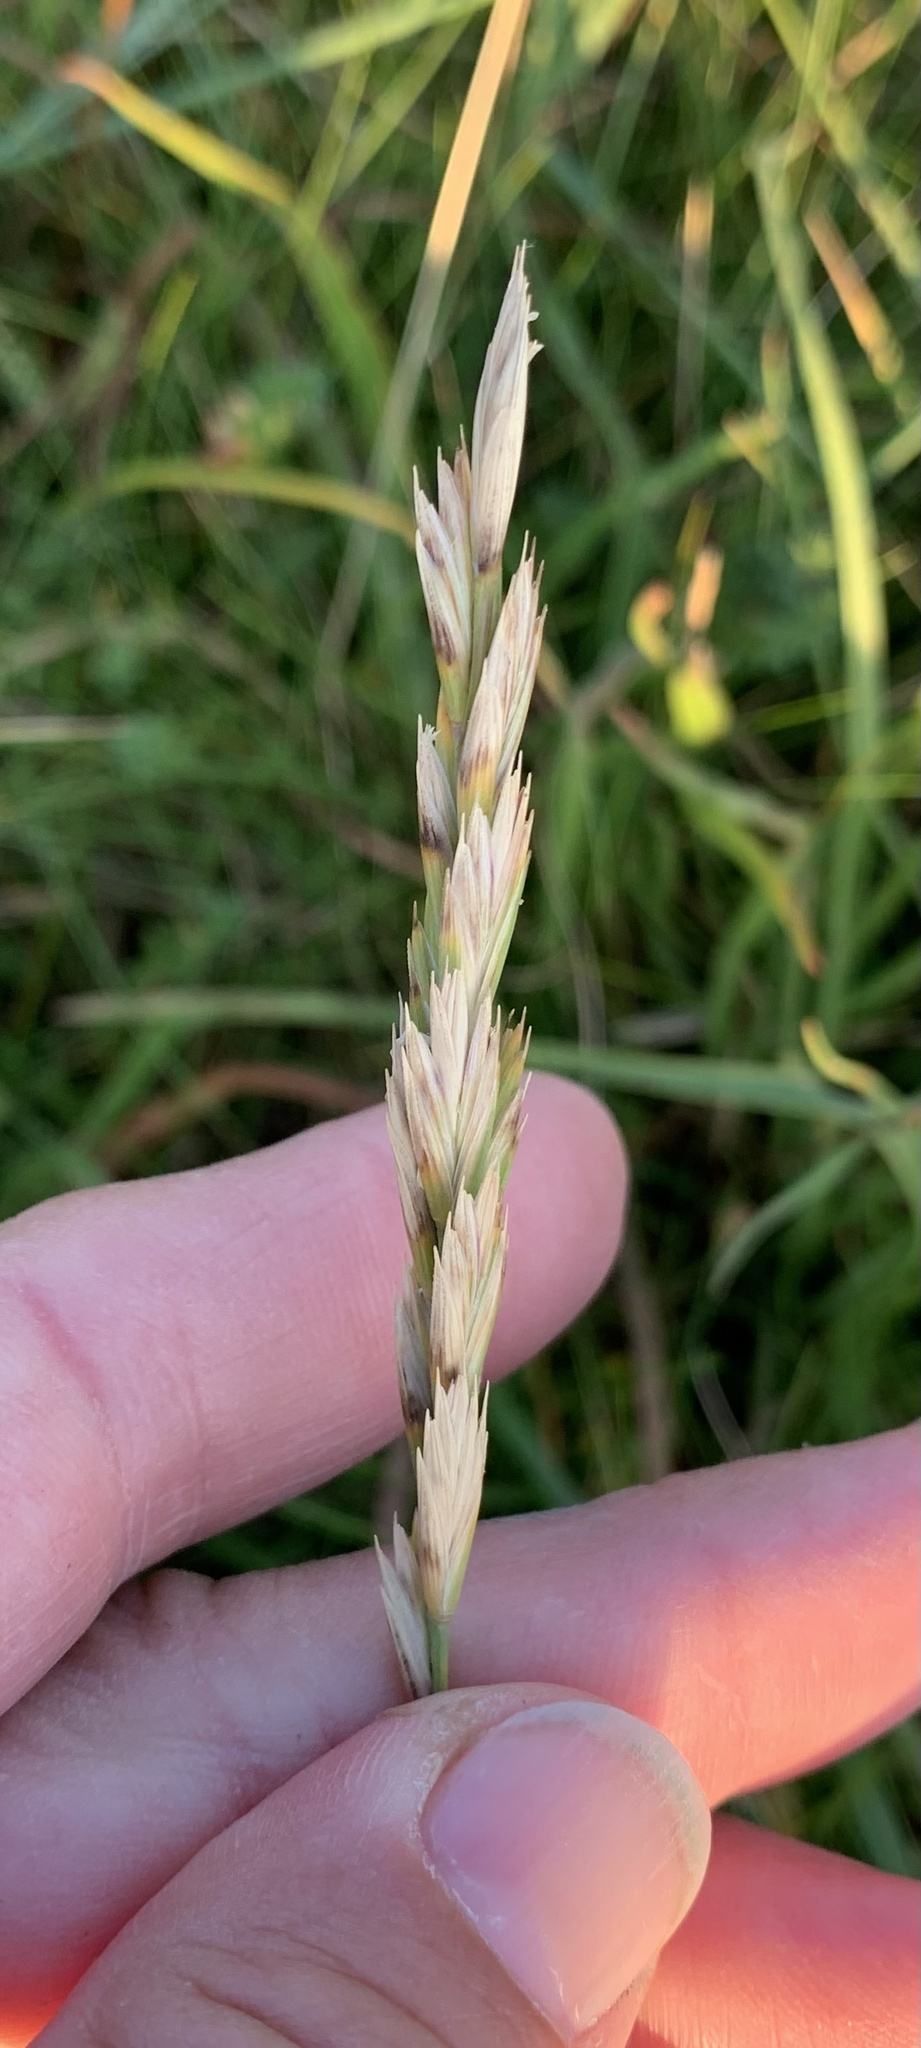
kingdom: Plantae
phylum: Tracheophyta
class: Liliopsida
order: Poales
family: Poaceae
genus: Elymus
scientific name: Elymus athericus
